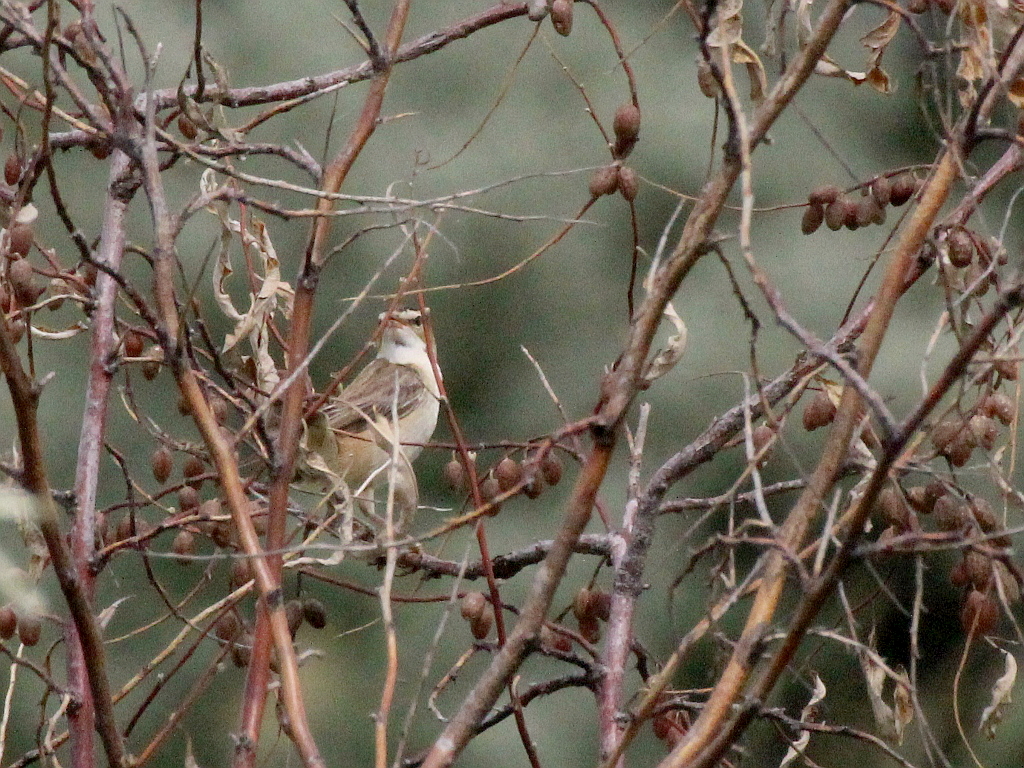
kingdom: Animalia
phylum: Chordata
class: Aves
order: Passeriformes
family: Acrocephalidae
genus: Acrocephalus
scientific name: Acrocephalus schoenobaenus
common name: Sedge warbler
